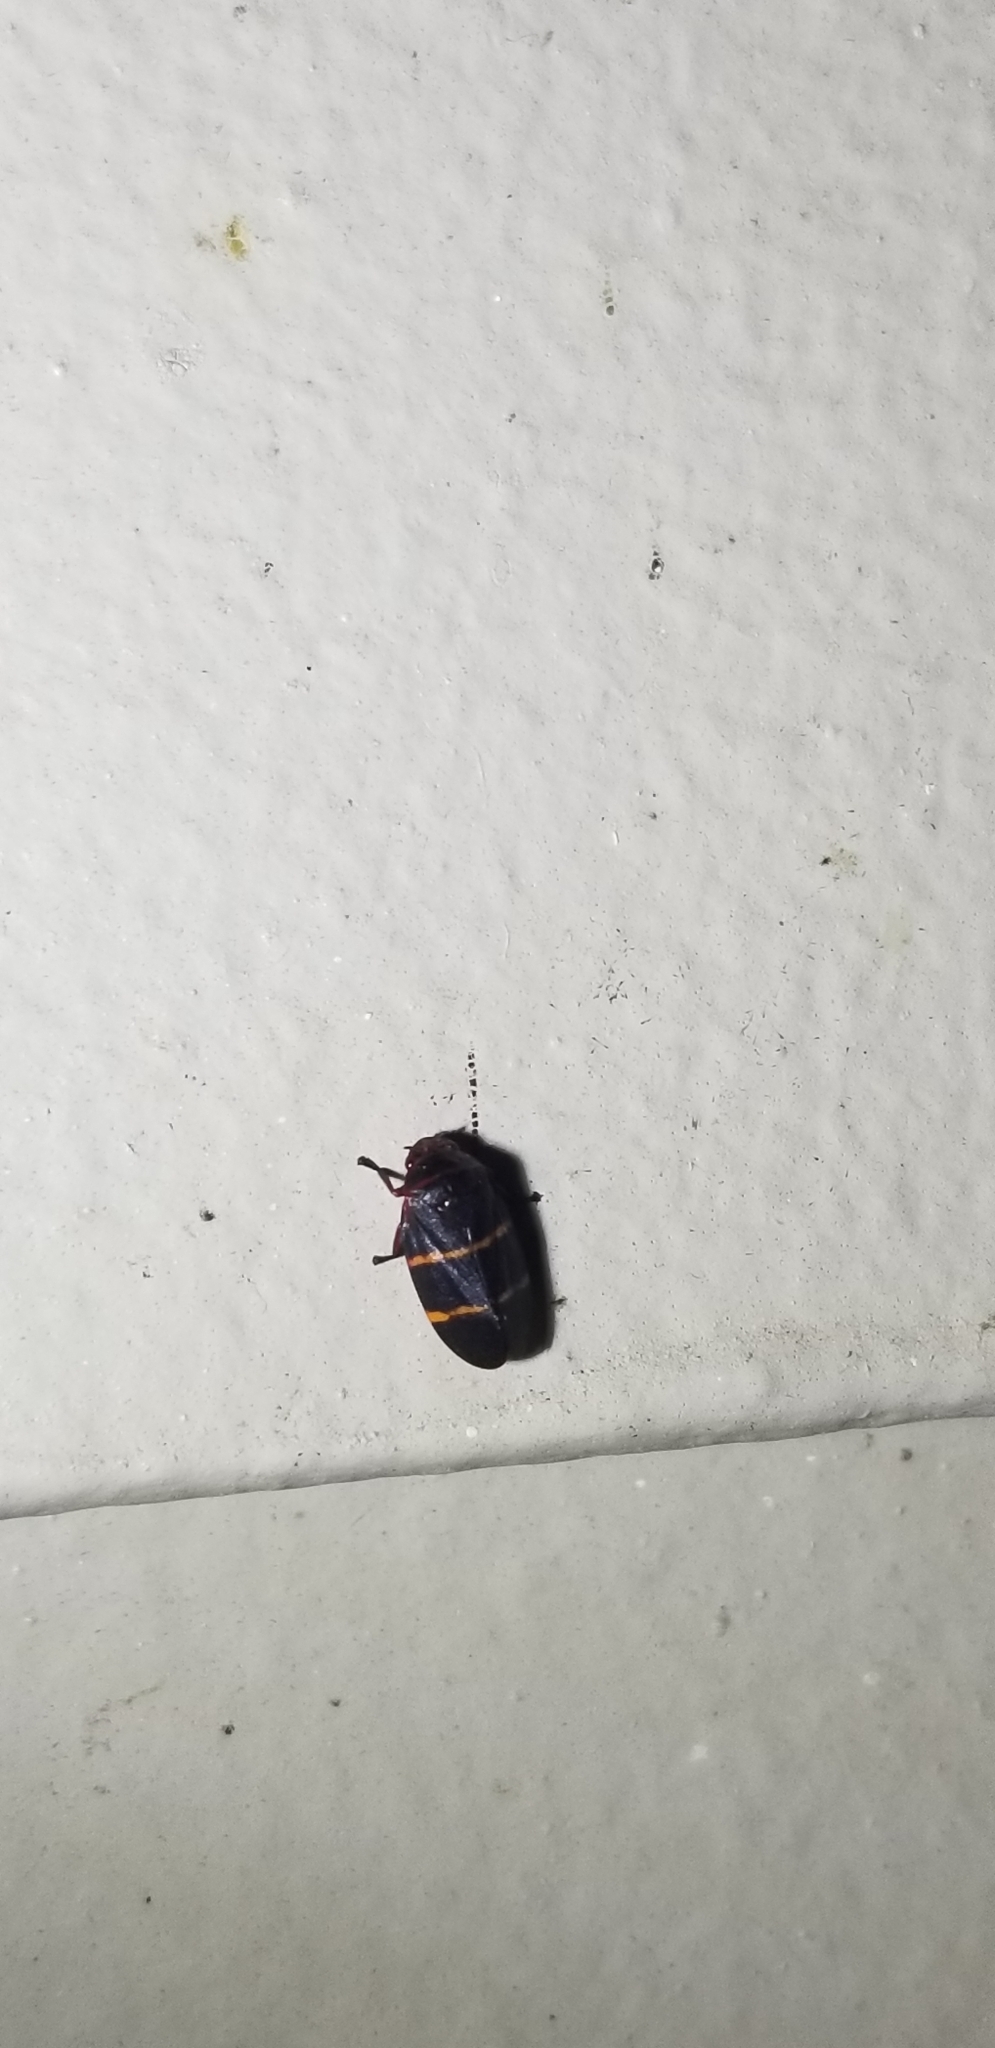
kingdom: Animalia
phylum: Arthropoda
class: Insecta
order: Hemiptera
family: Cercopidae
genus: Prosapia
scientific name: Prosapia bicincta
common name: Twolined spittlebug
